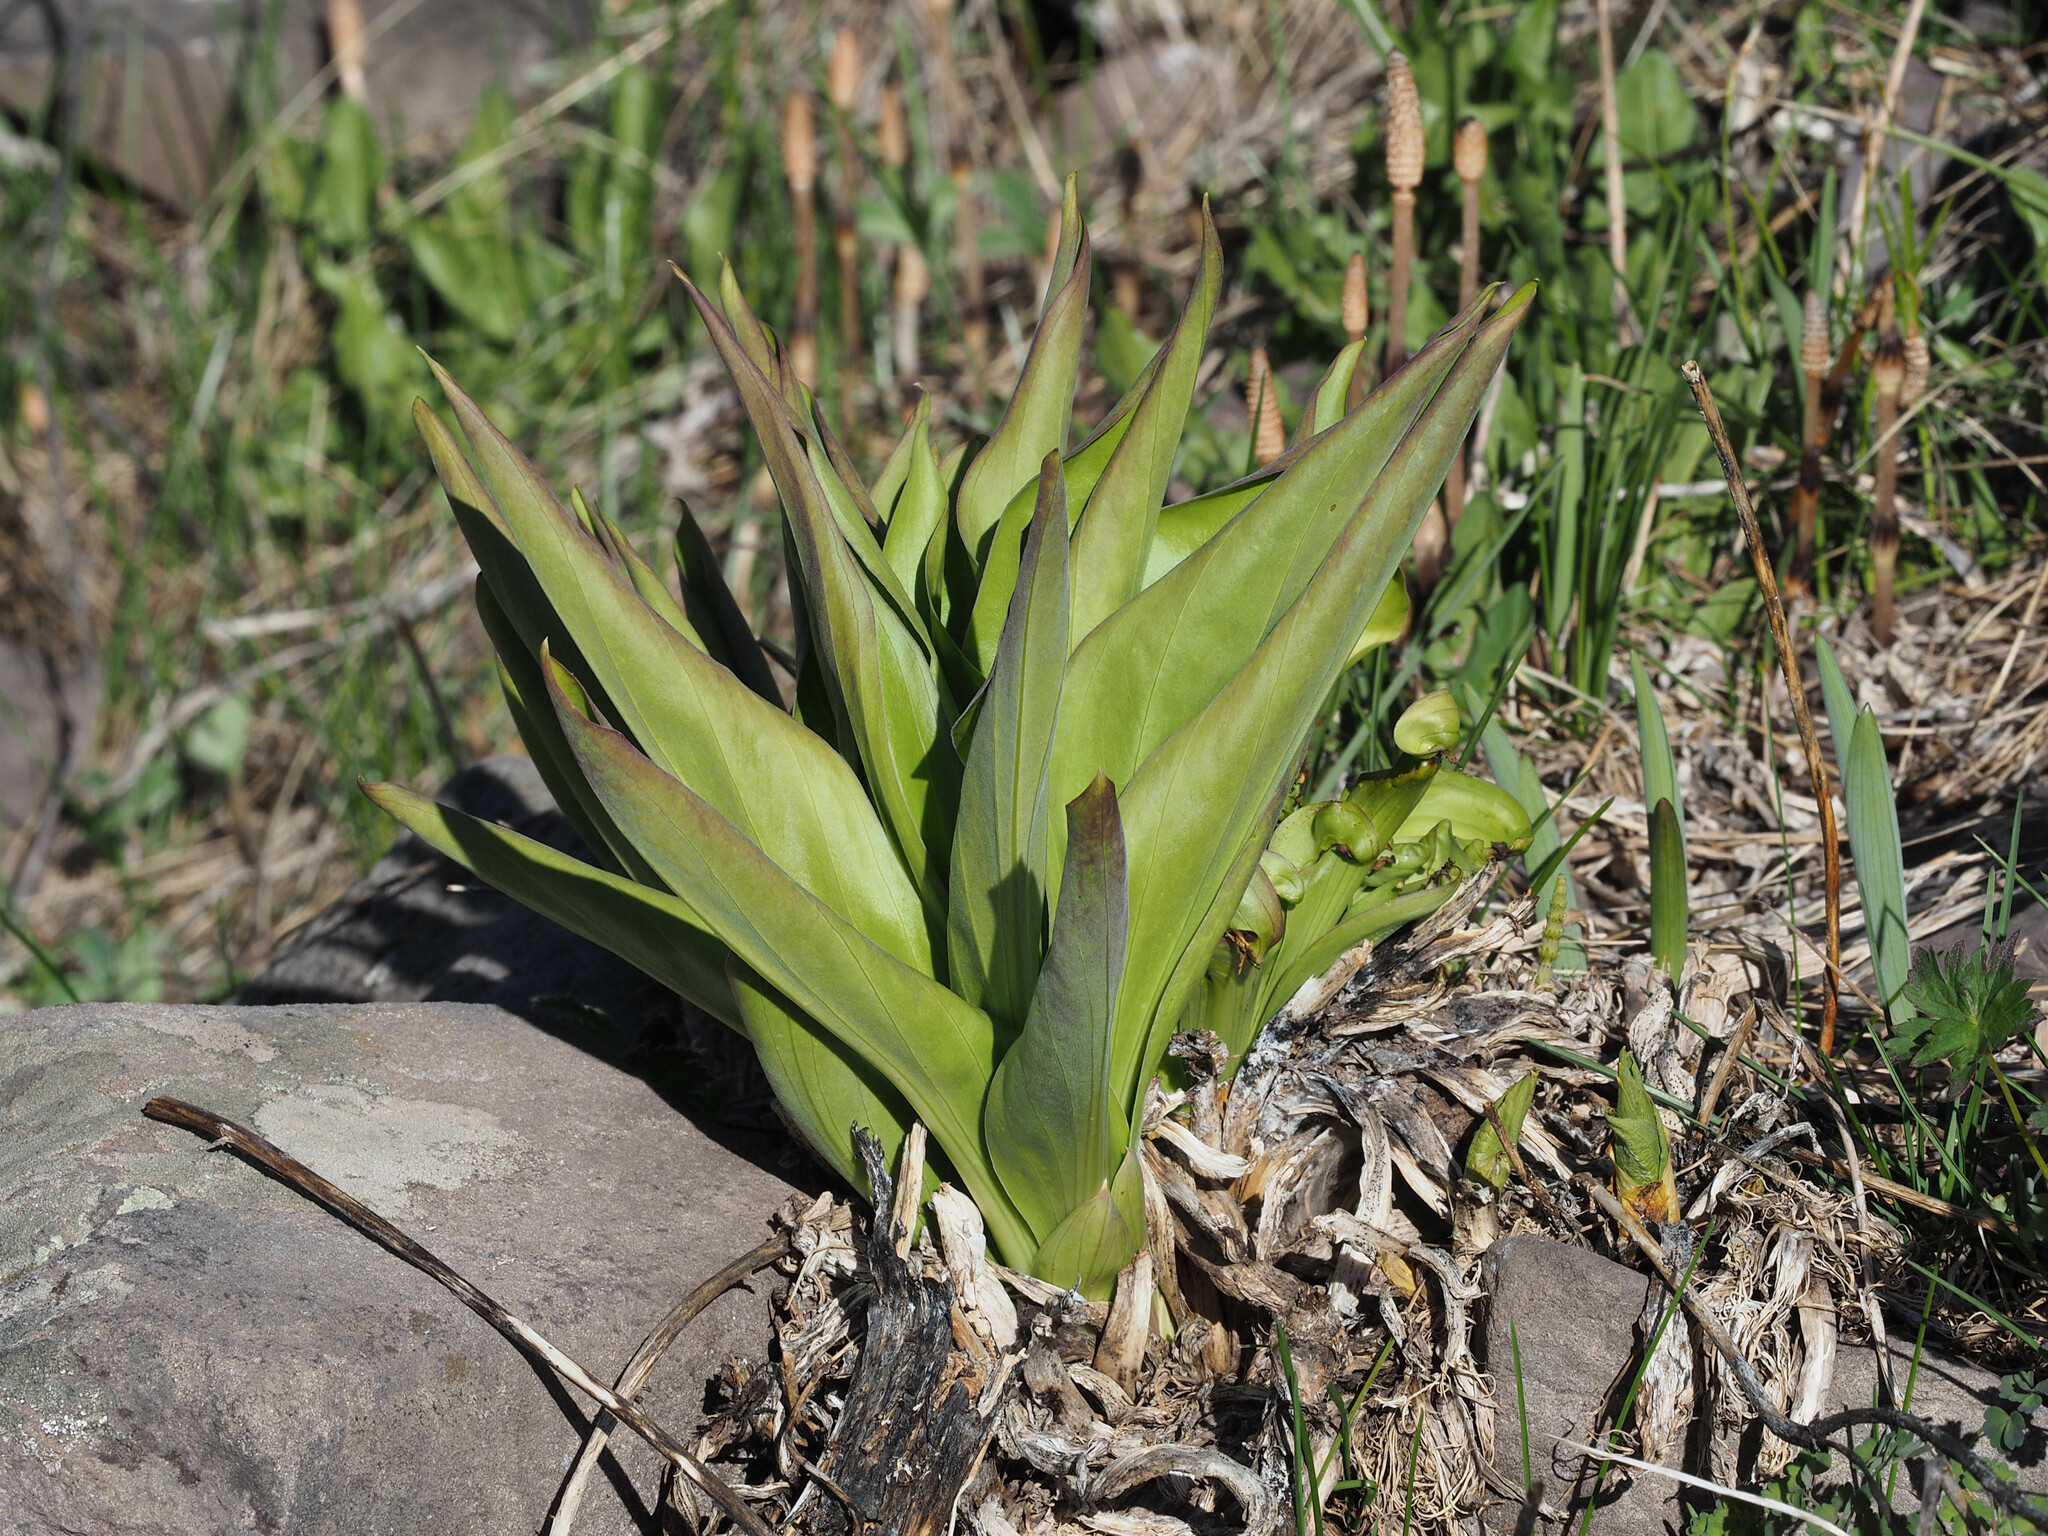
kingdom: Plantae
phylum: Tracheophyta
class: Magnoliopsida
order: Gentianales
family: Gentianaceae
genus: Frasera
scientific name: Frasera speciosa
